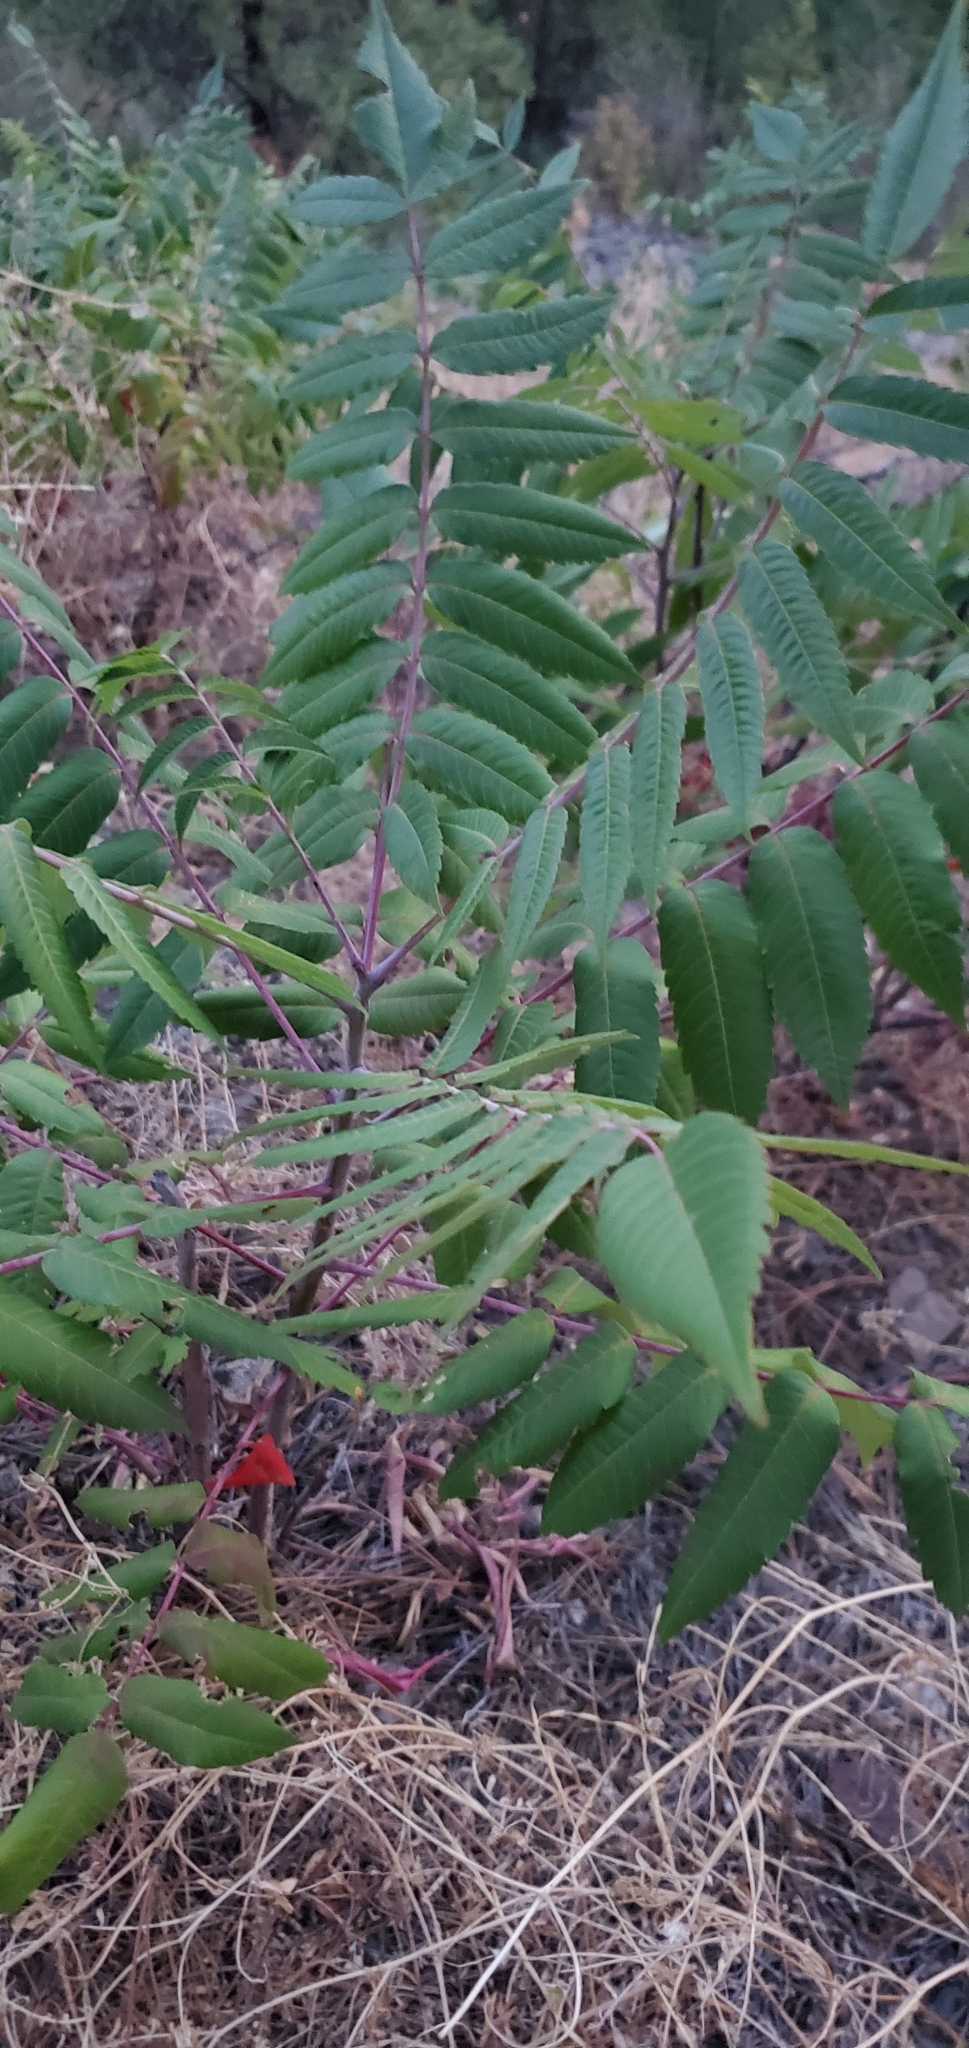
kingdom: Plantae
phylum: Tracheophyta
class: Magnoliopsida
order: Sapindales
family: Anacardiaceae
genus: Rhus
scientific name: Rhus glabra
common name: Scarlet sumac
